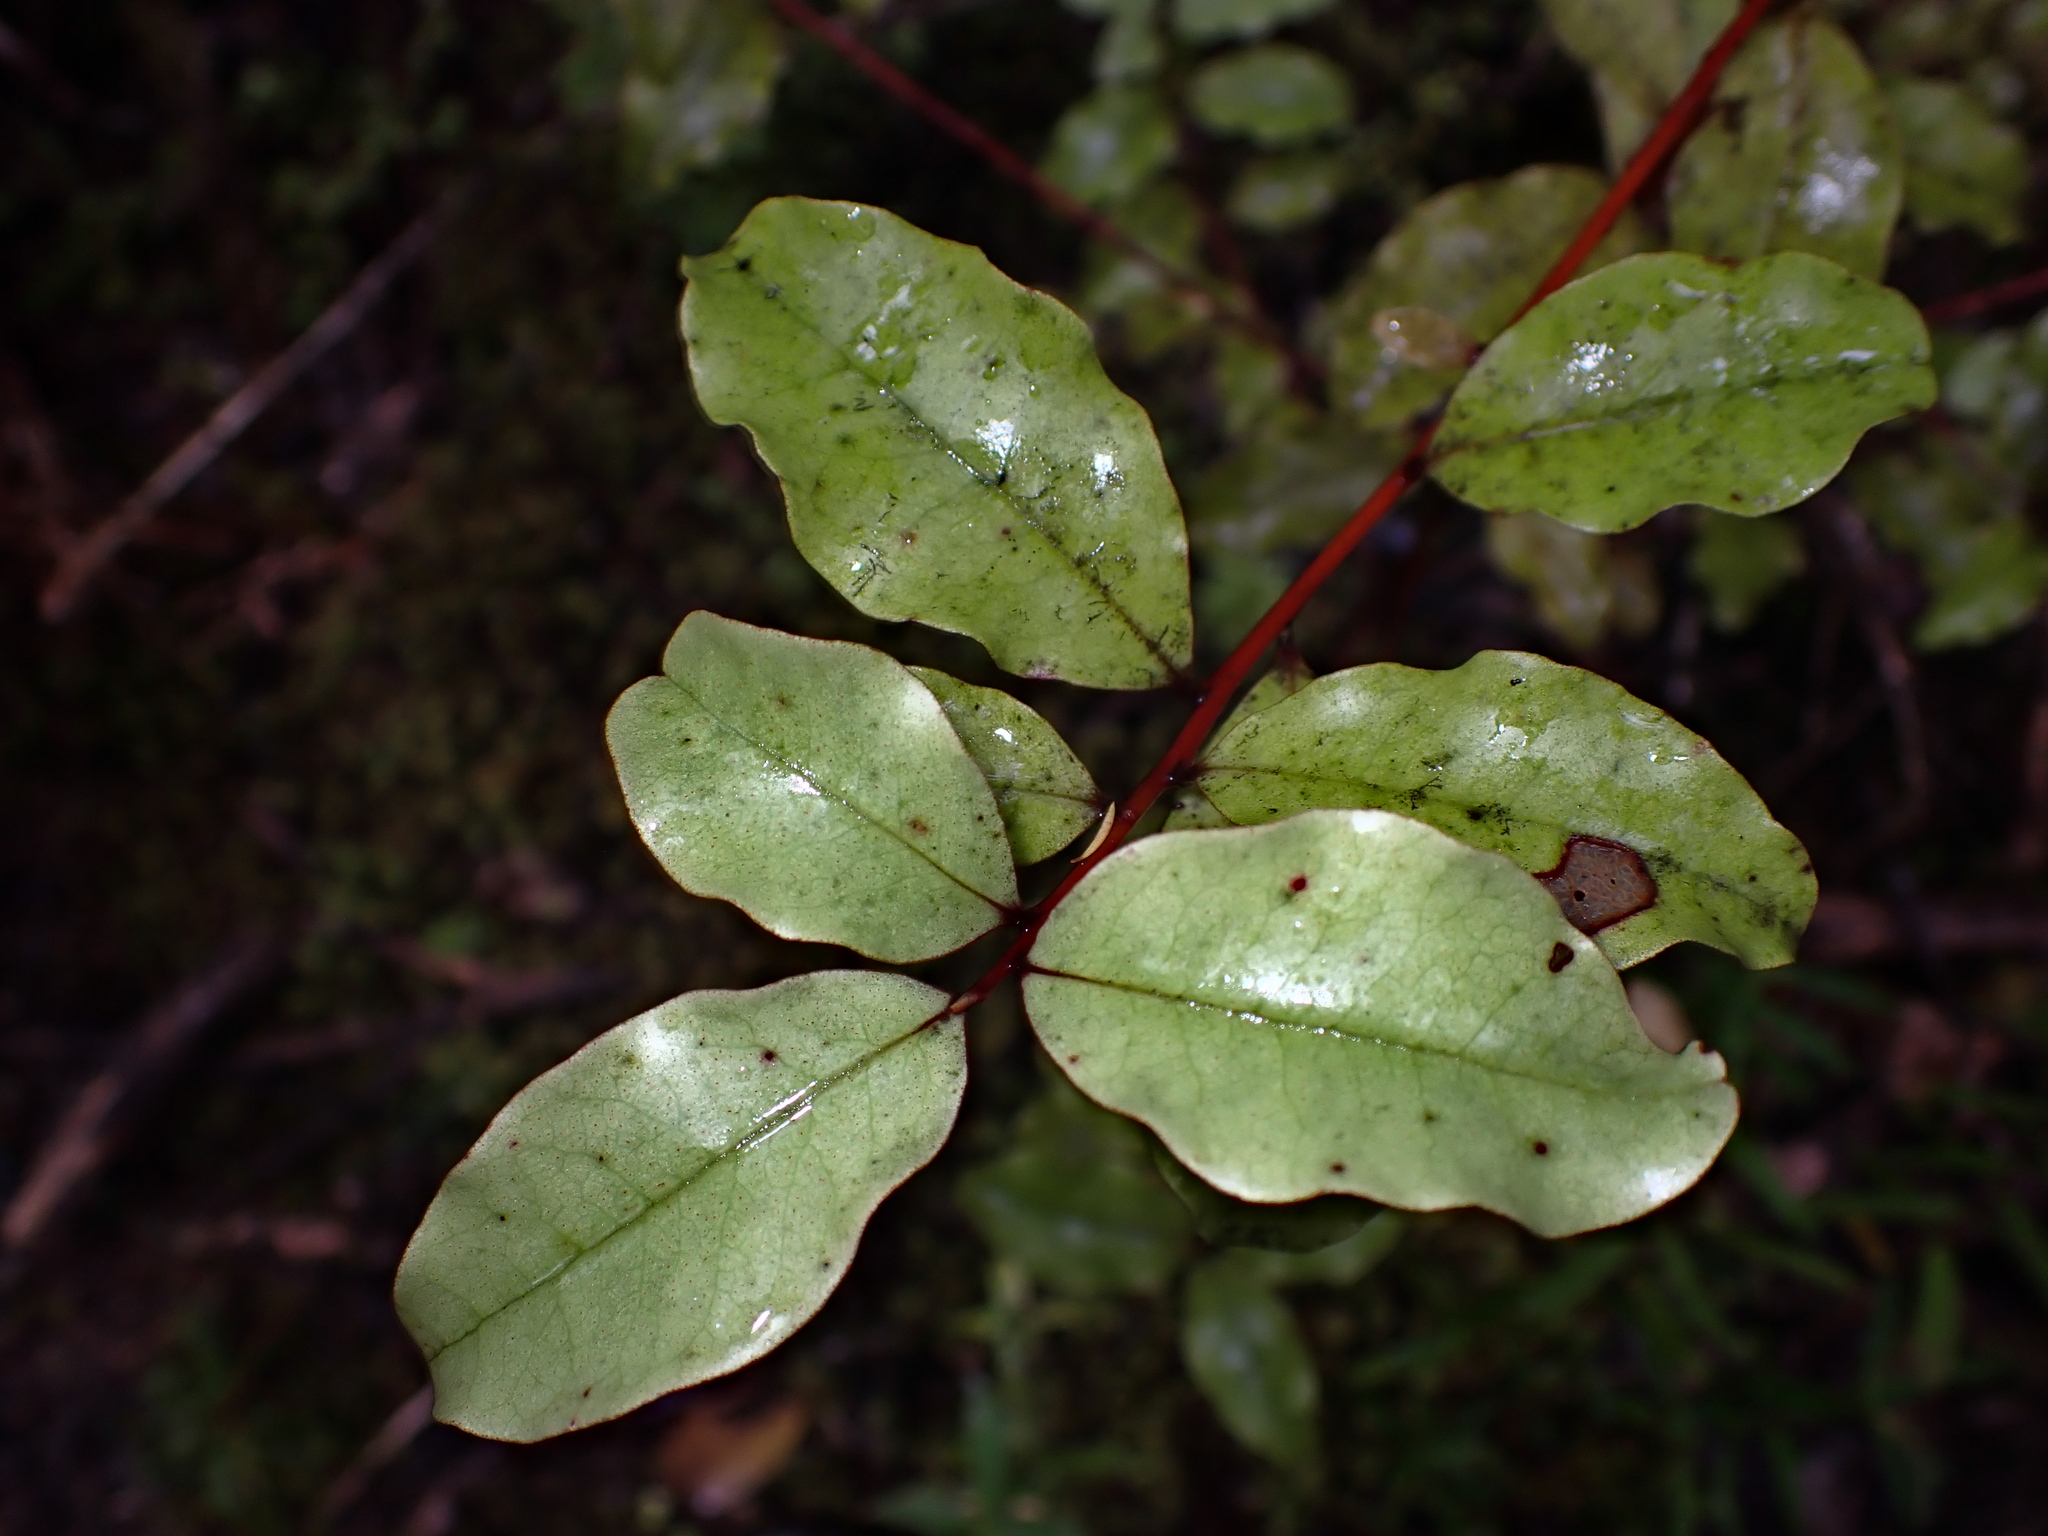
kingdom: Plantae
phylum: Tracheophyta
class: Magnoliopsida
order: Ericales
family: Primulaceae
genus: Myrsine
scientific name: Myrsine australis
